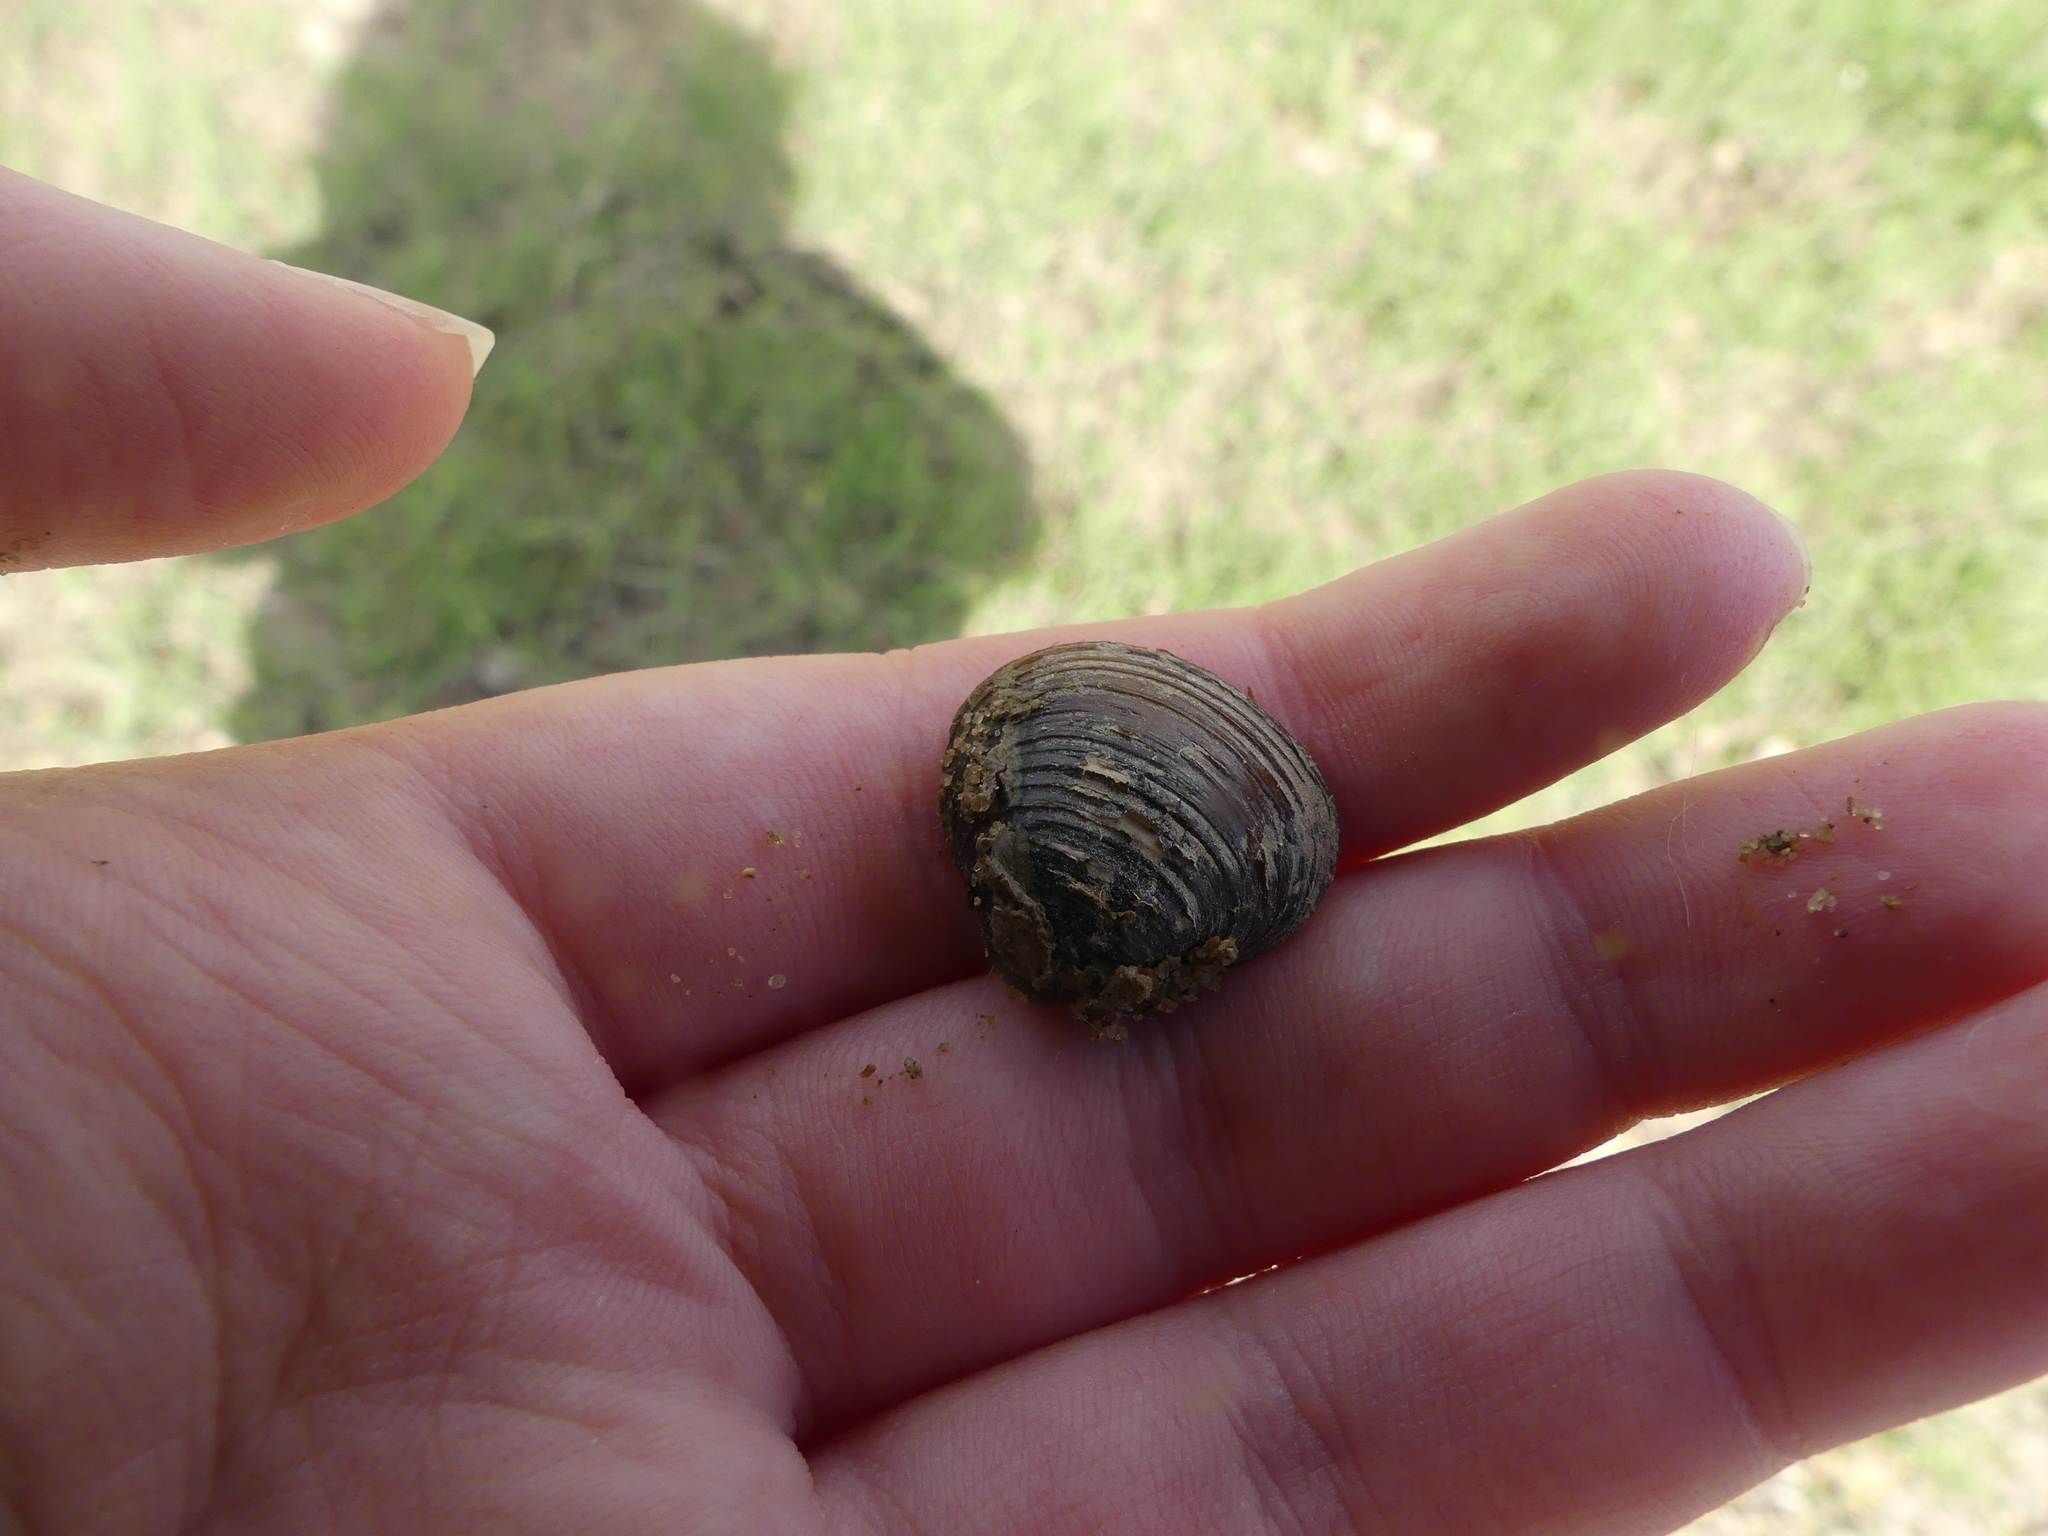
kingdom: Animalia
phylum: Mollusca
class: Bivalvia
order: Venerida
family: Cyrenidae
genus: Corbicula
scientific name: Corbicula fluminea
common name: Asian clam
